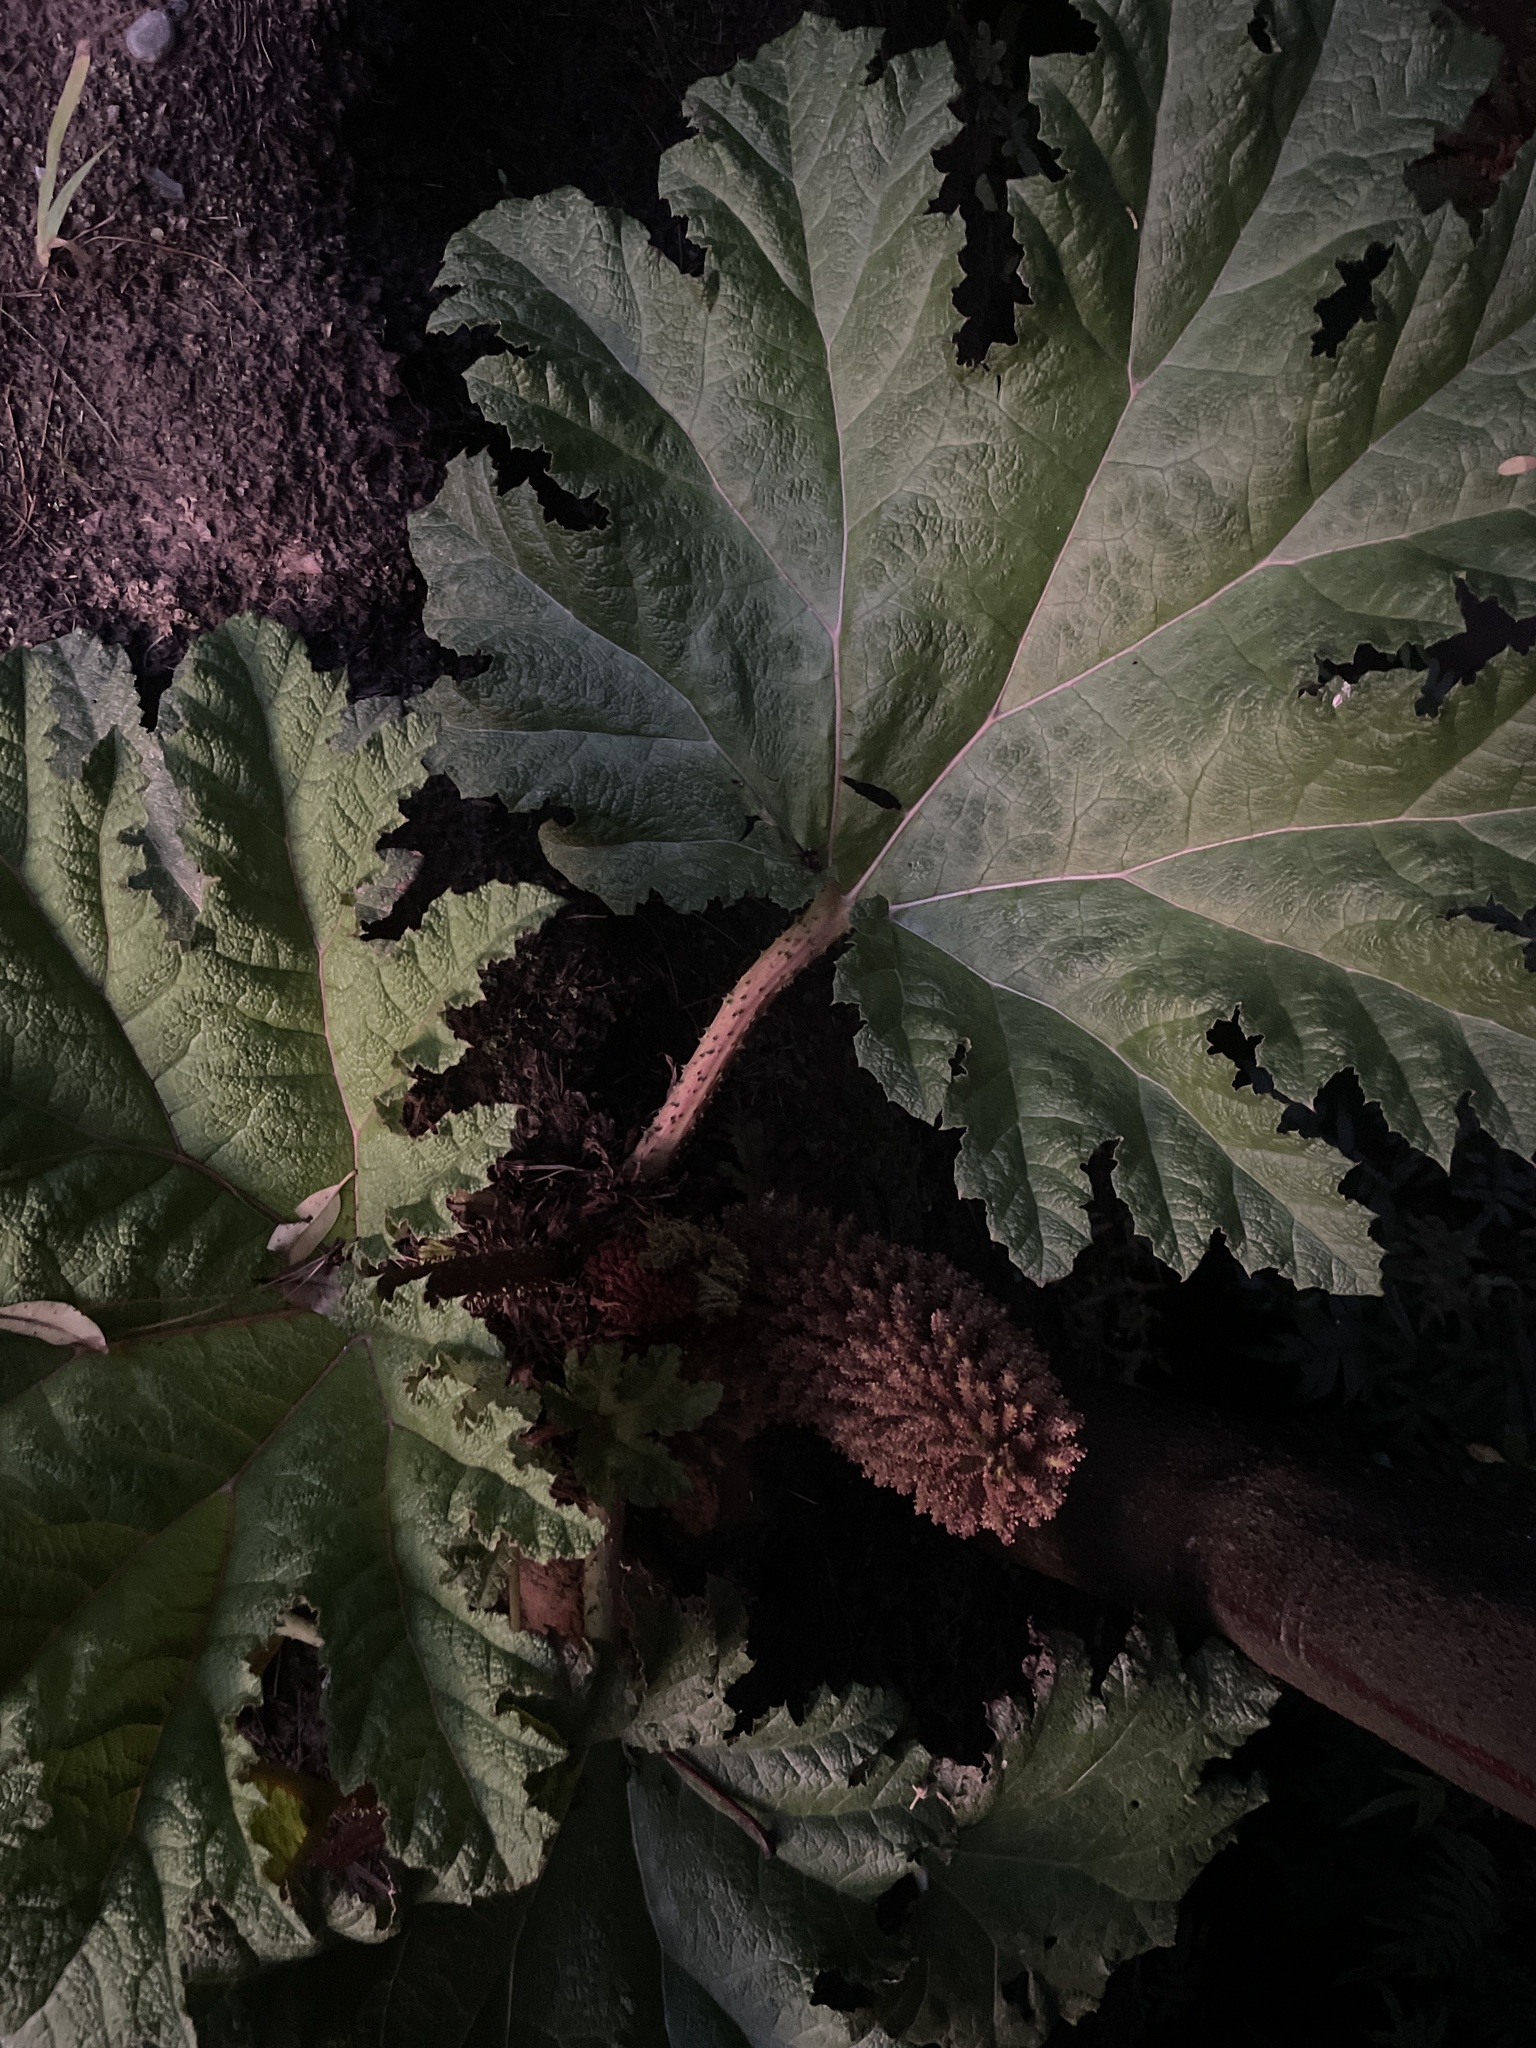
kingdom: Plantae
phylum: Tracheophyta
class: Magnoliopsida
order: Gunnerales
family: Gunneraceae
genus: Gunnera
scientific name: Gunnera tinctoria
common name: Giant-rhubarb
